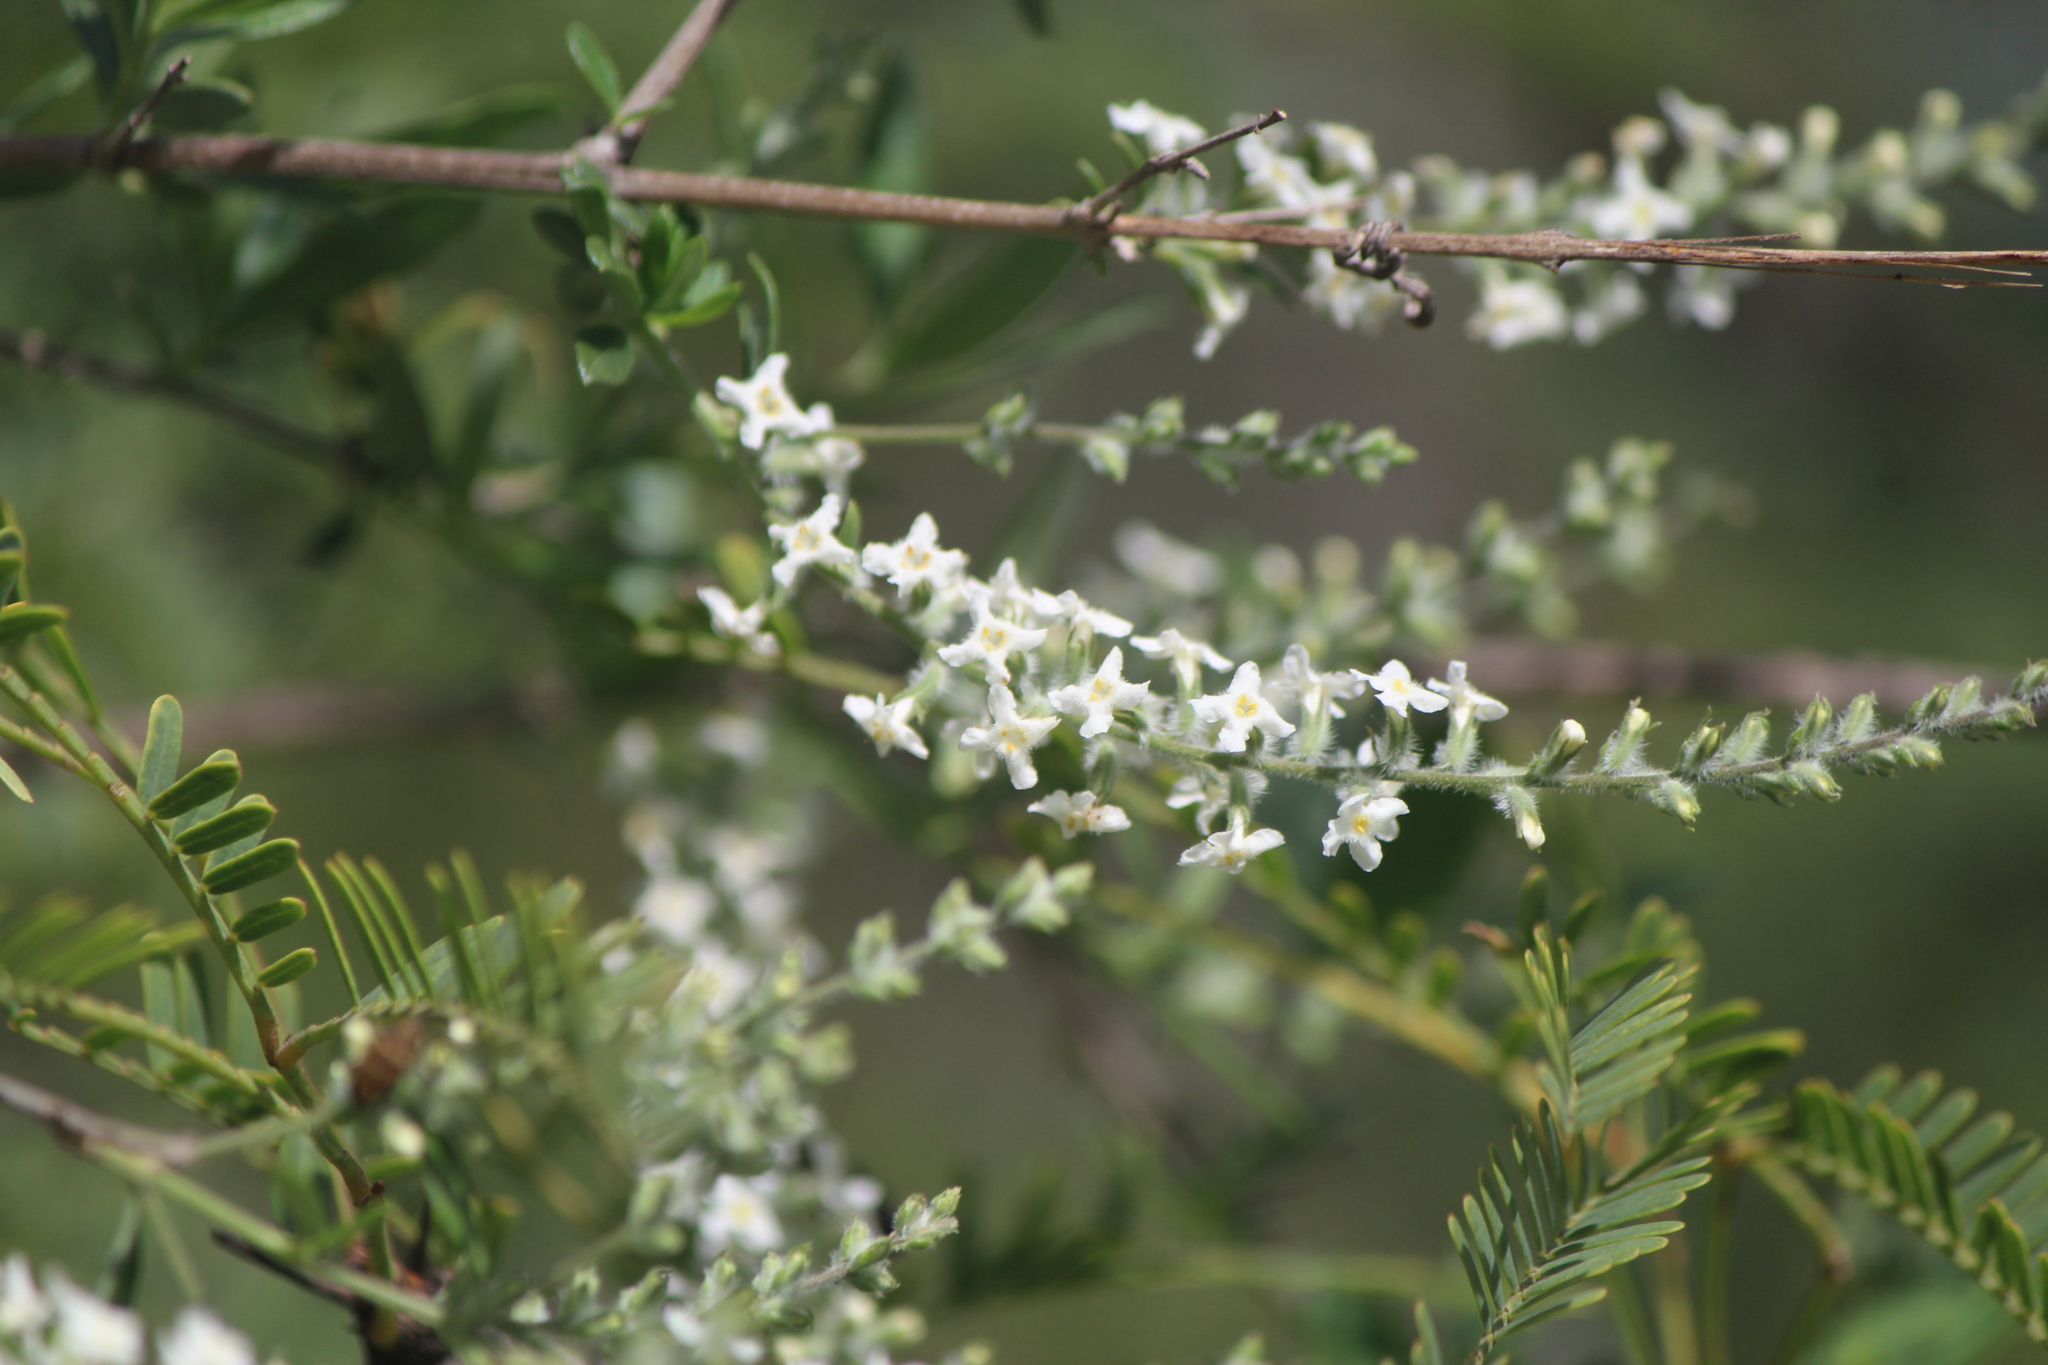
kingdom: Plantae
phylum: Tracheophyta
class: Magnoliopsida
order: Lamiales
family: Verbenaceae
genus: Aloysia
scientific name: Aloysia gratissima
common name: Common bee-brush
